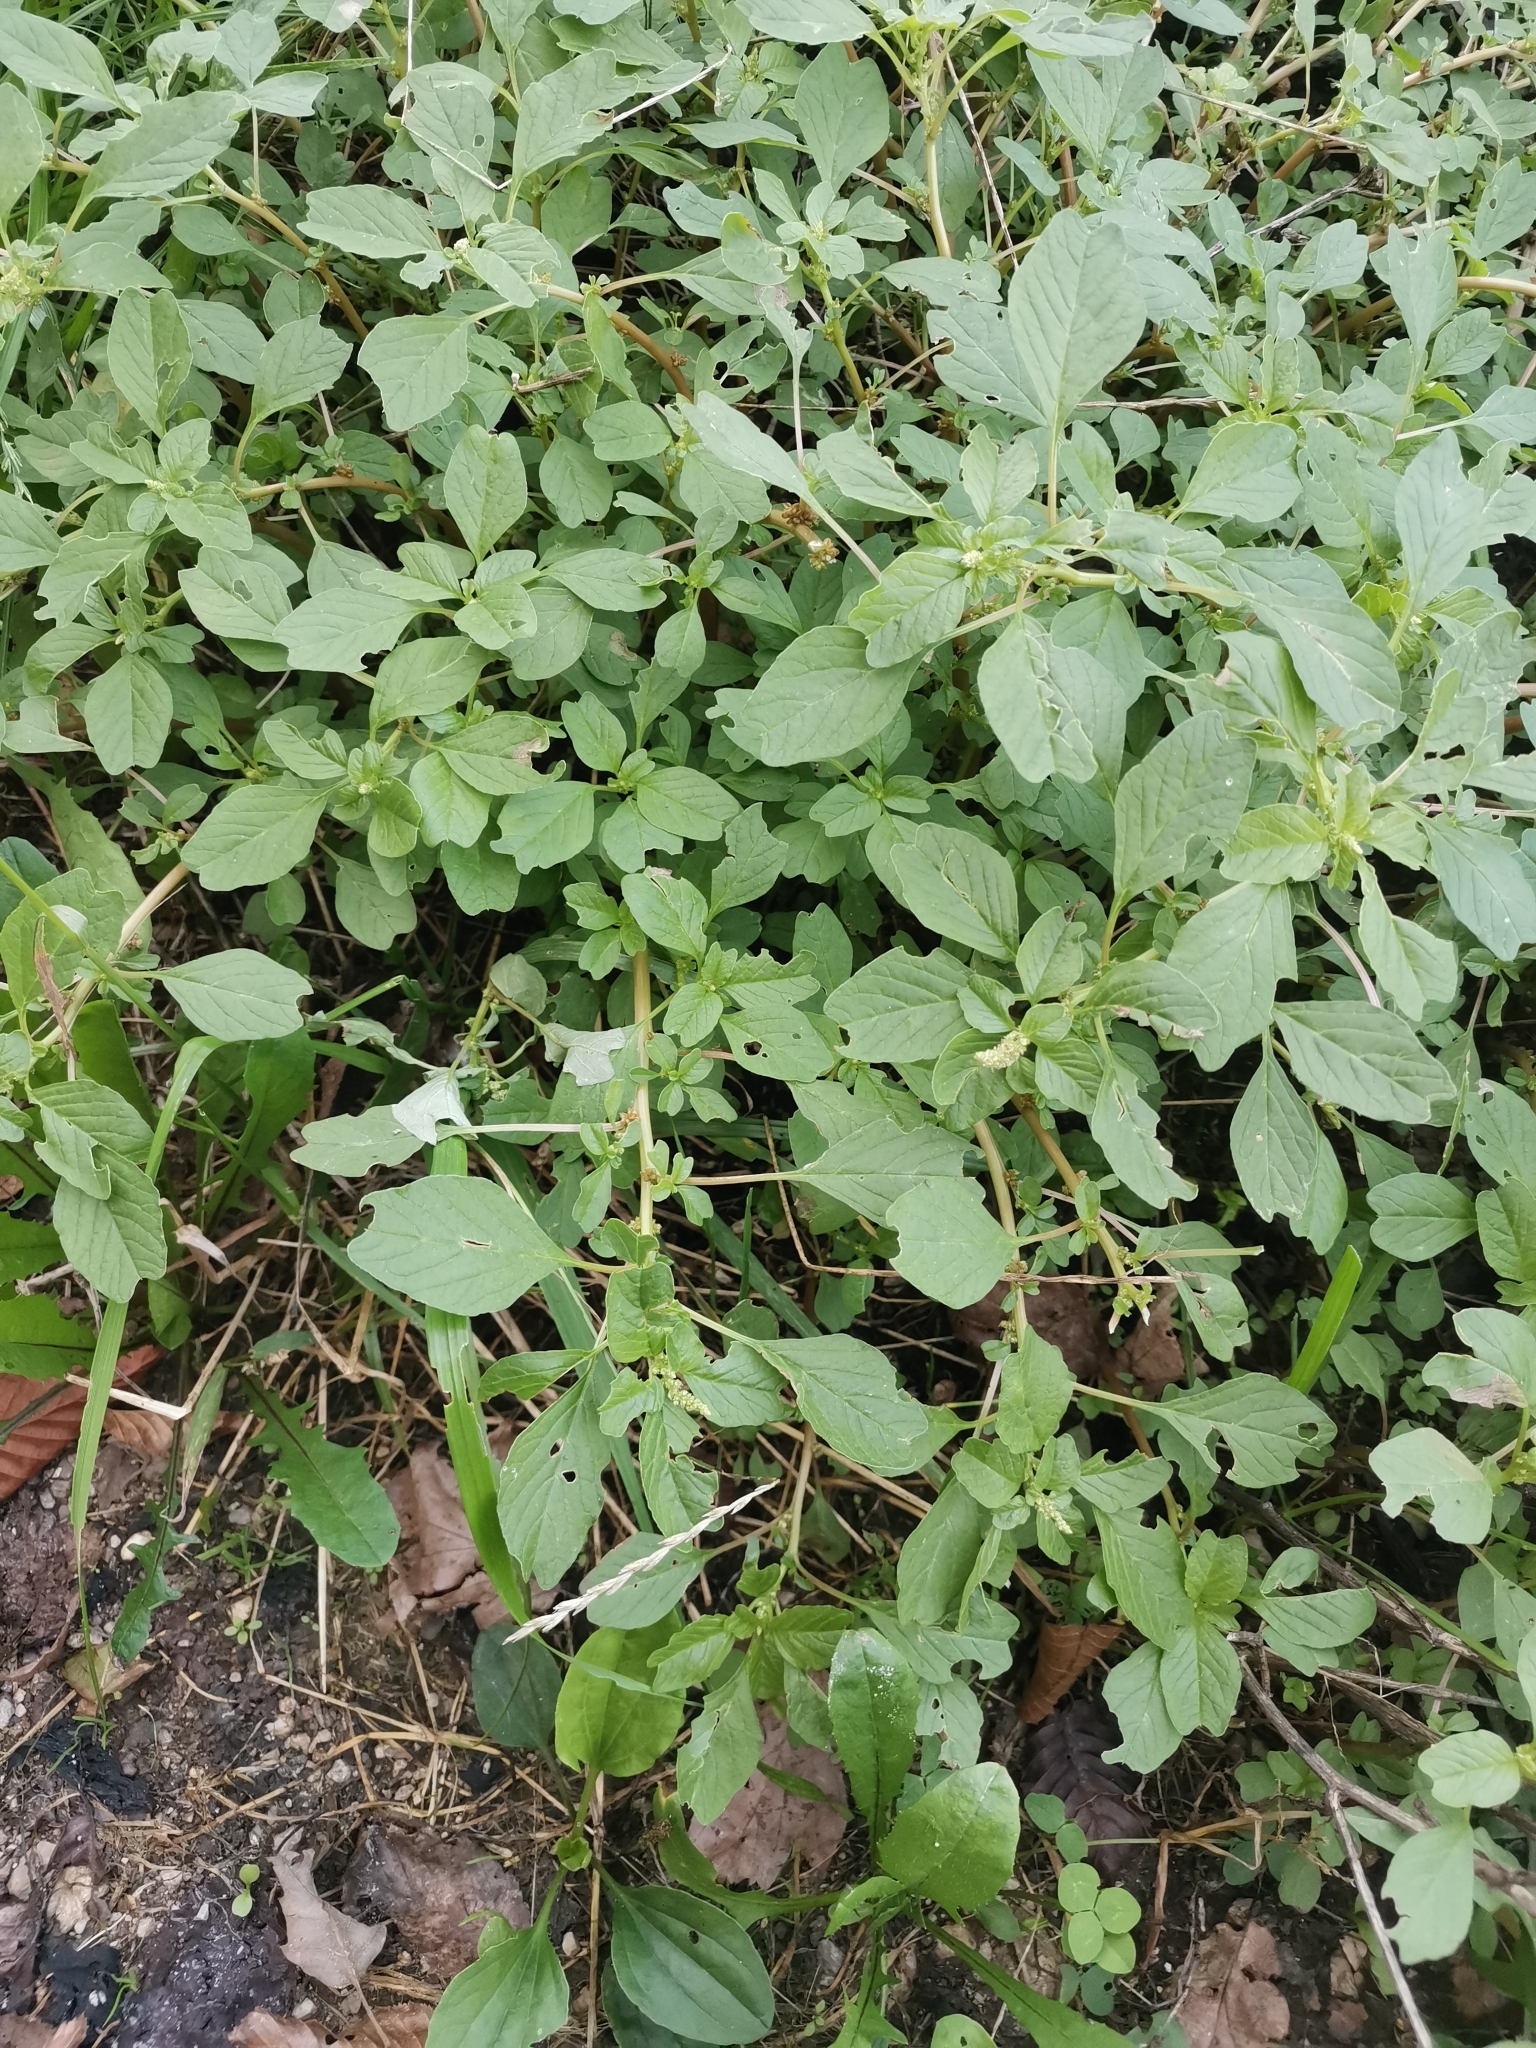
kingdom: Plantae
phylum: Tracheophyta
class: Magnoliopsida
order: Caryophyllales
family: Amaranthaceae
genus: Amaranthus
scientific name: Amaranthus blitum
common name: Purple amaranth
